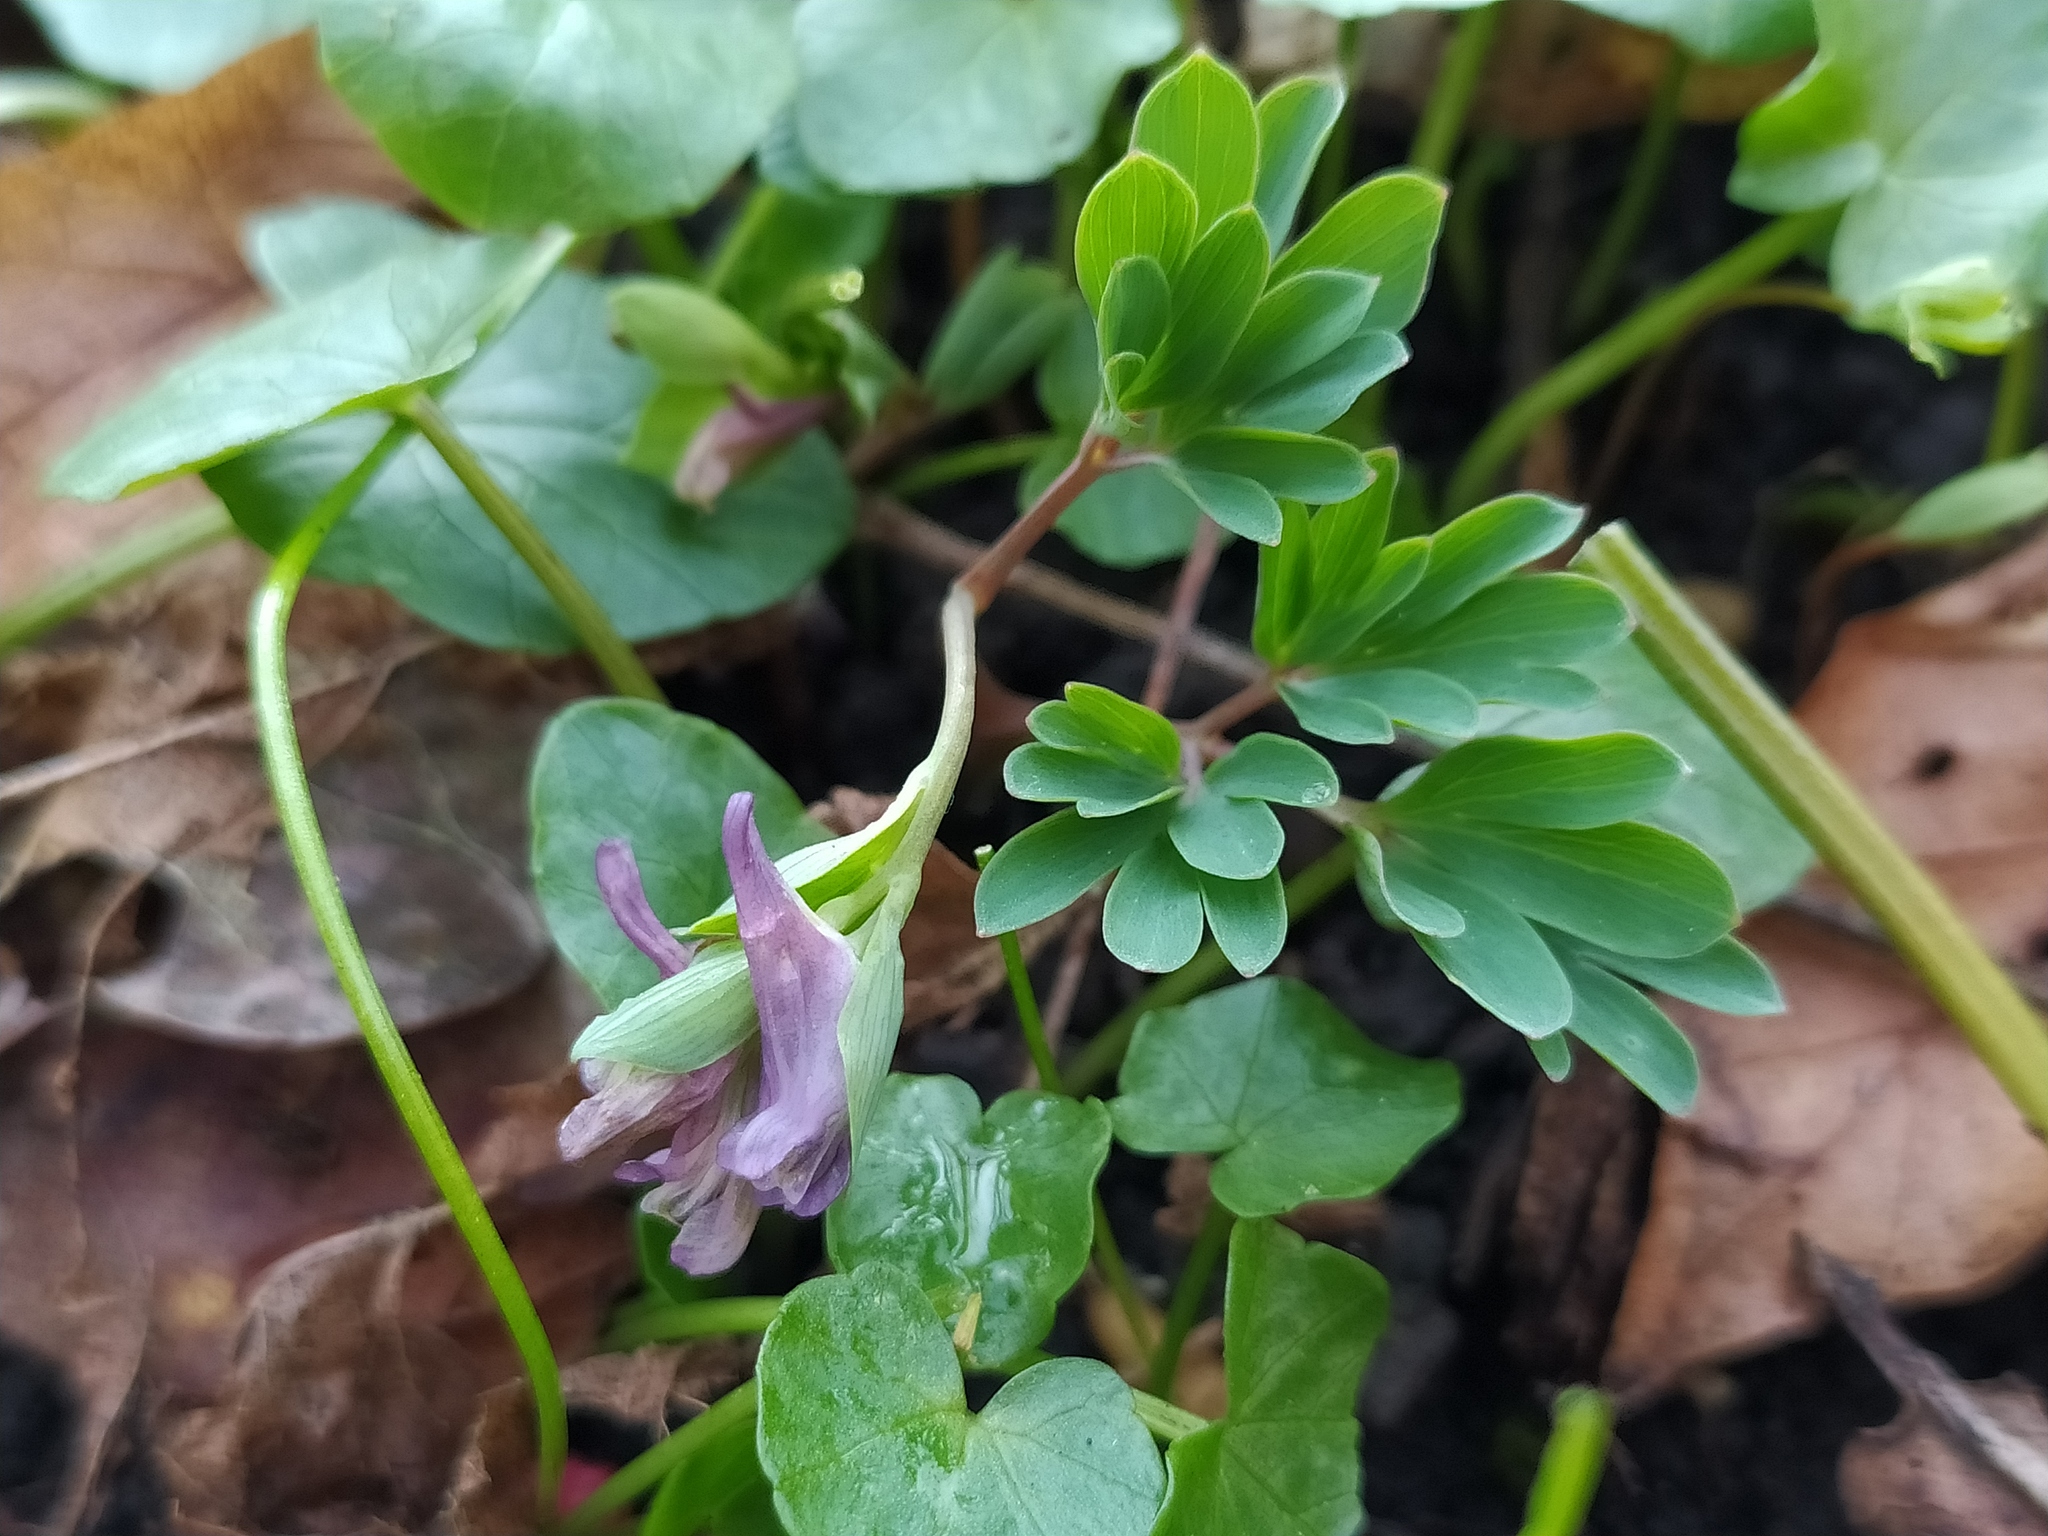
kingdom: Plantae
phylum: Tracheophyta
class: Magnoliopsida
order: Ranunculales
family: Papaveraceae
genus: Corydalis
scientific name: Corydalis intermedia
